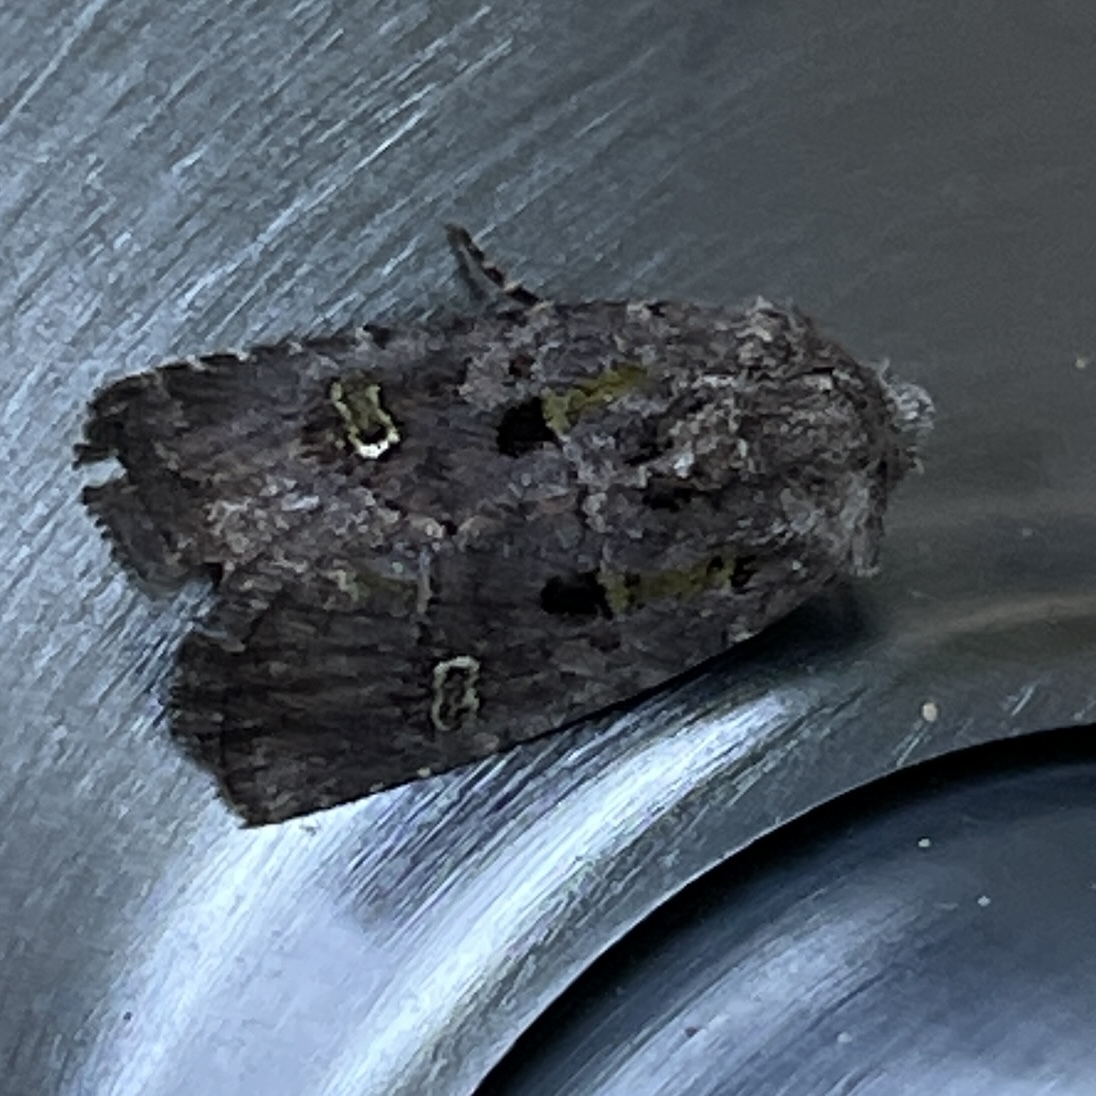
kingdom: Animalia
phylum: Arthropoda
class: Insecta
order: Lepidoptera
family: Noctuidae
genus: Lacinipolia
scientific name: Lacinipolia renigera
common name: Kidney-spotted minor
